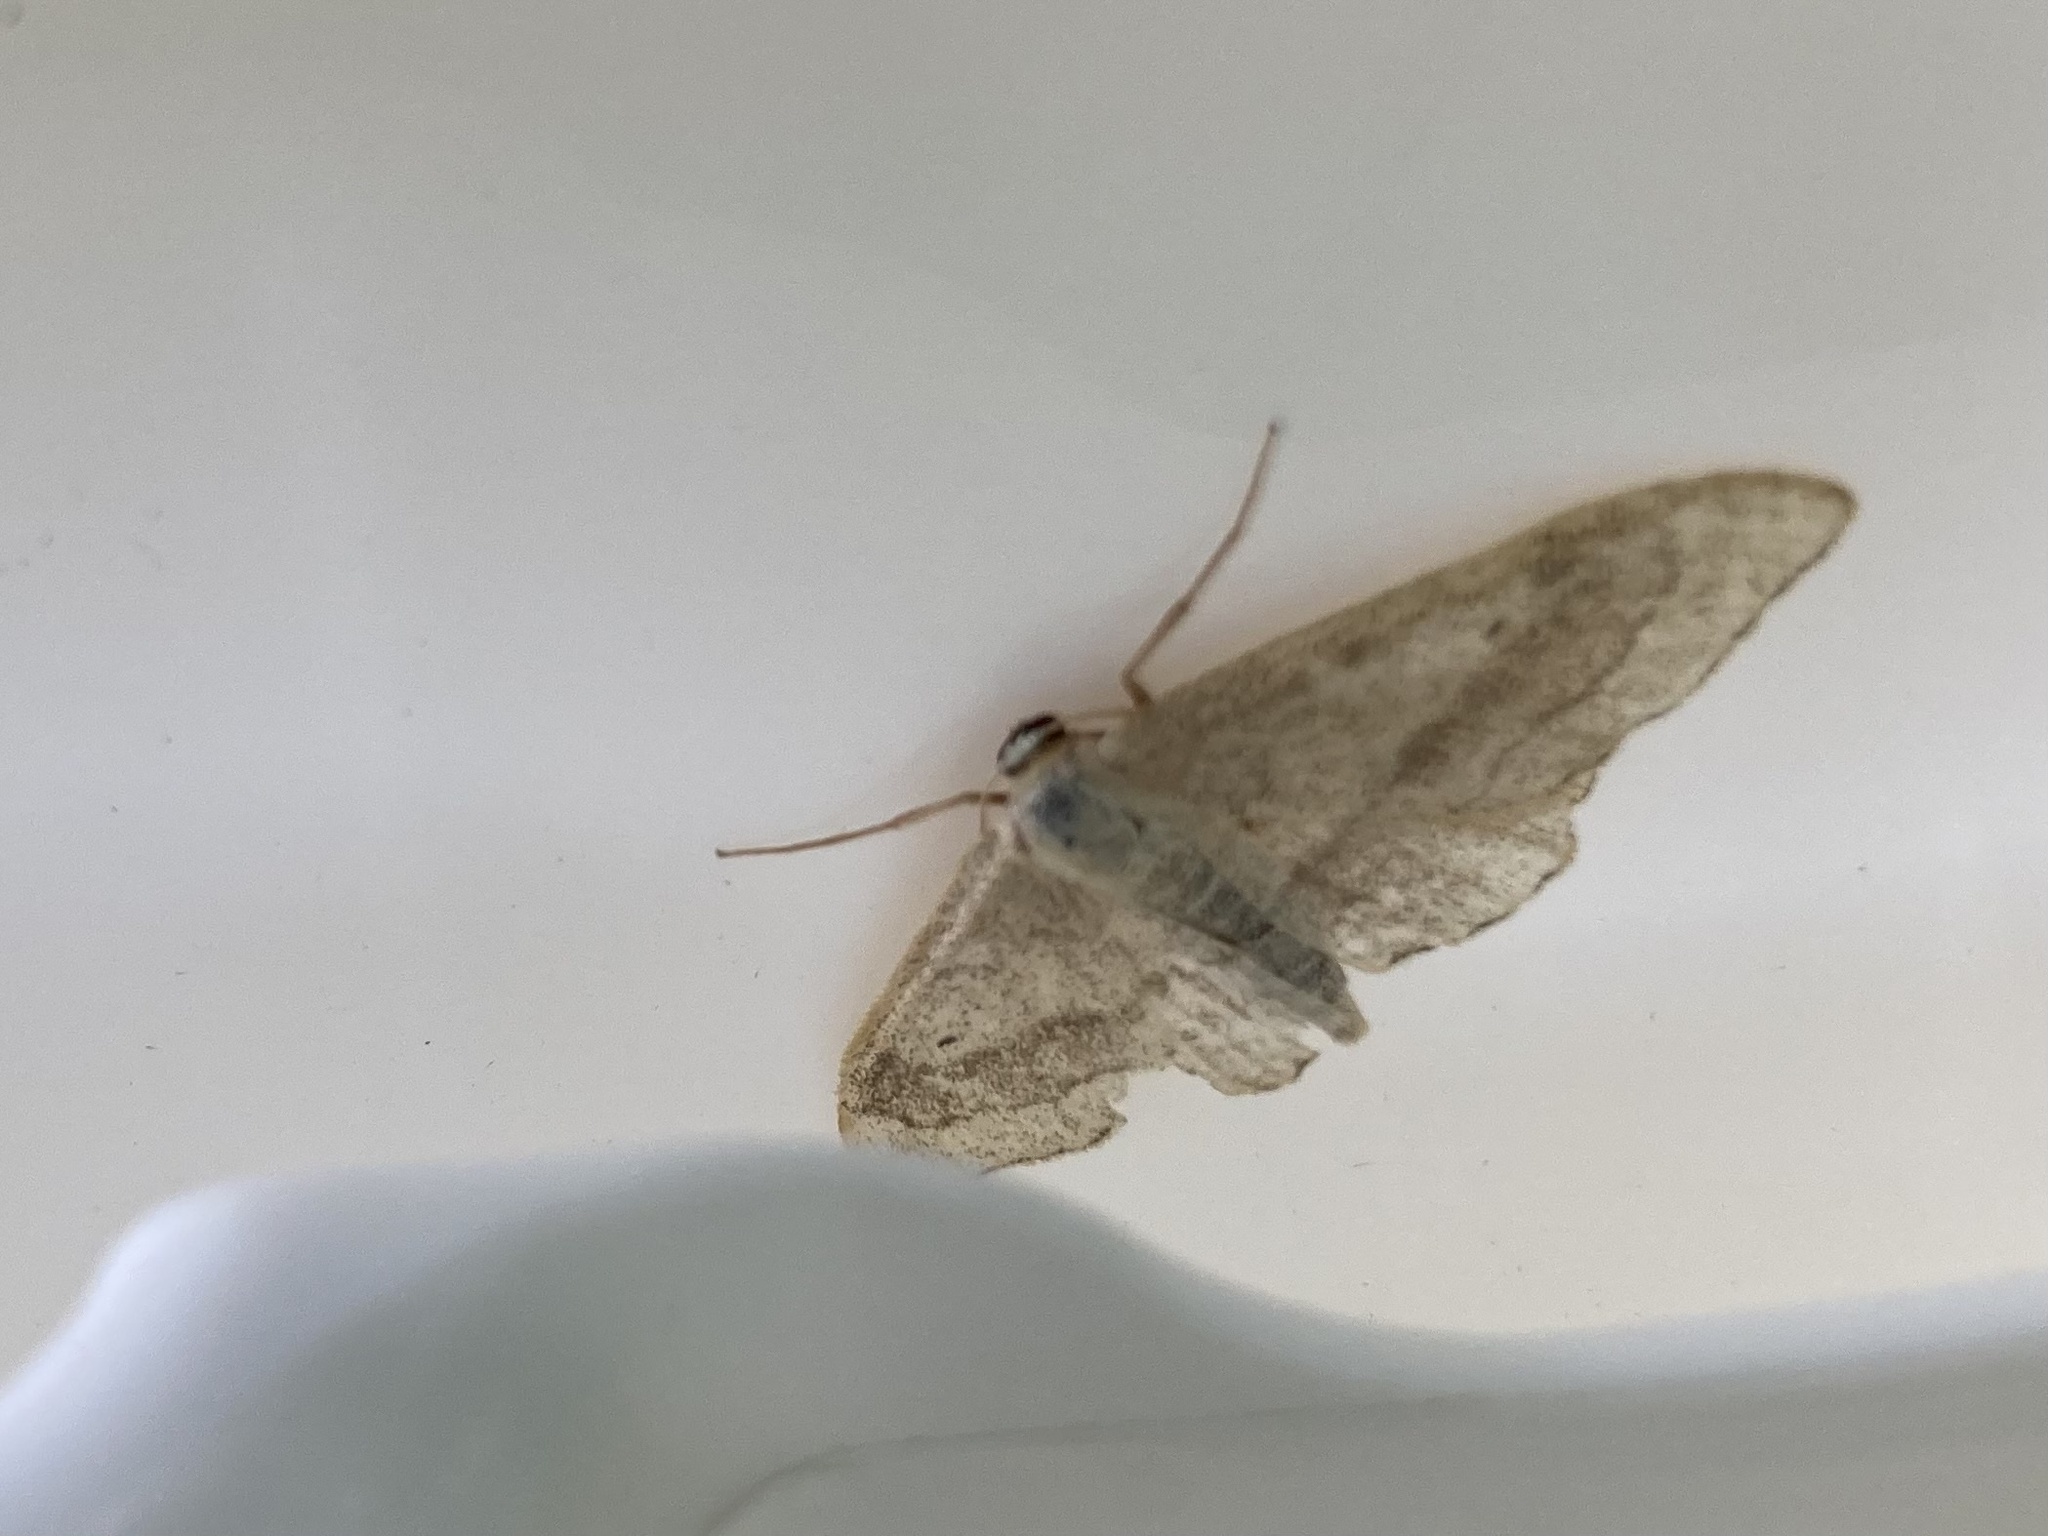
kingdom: Animalia
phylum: Arthropoda
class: Insecta
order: Lepidoptera
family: Geometridae
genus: Idaea
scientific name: Idaea aversata
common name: Riband wave
